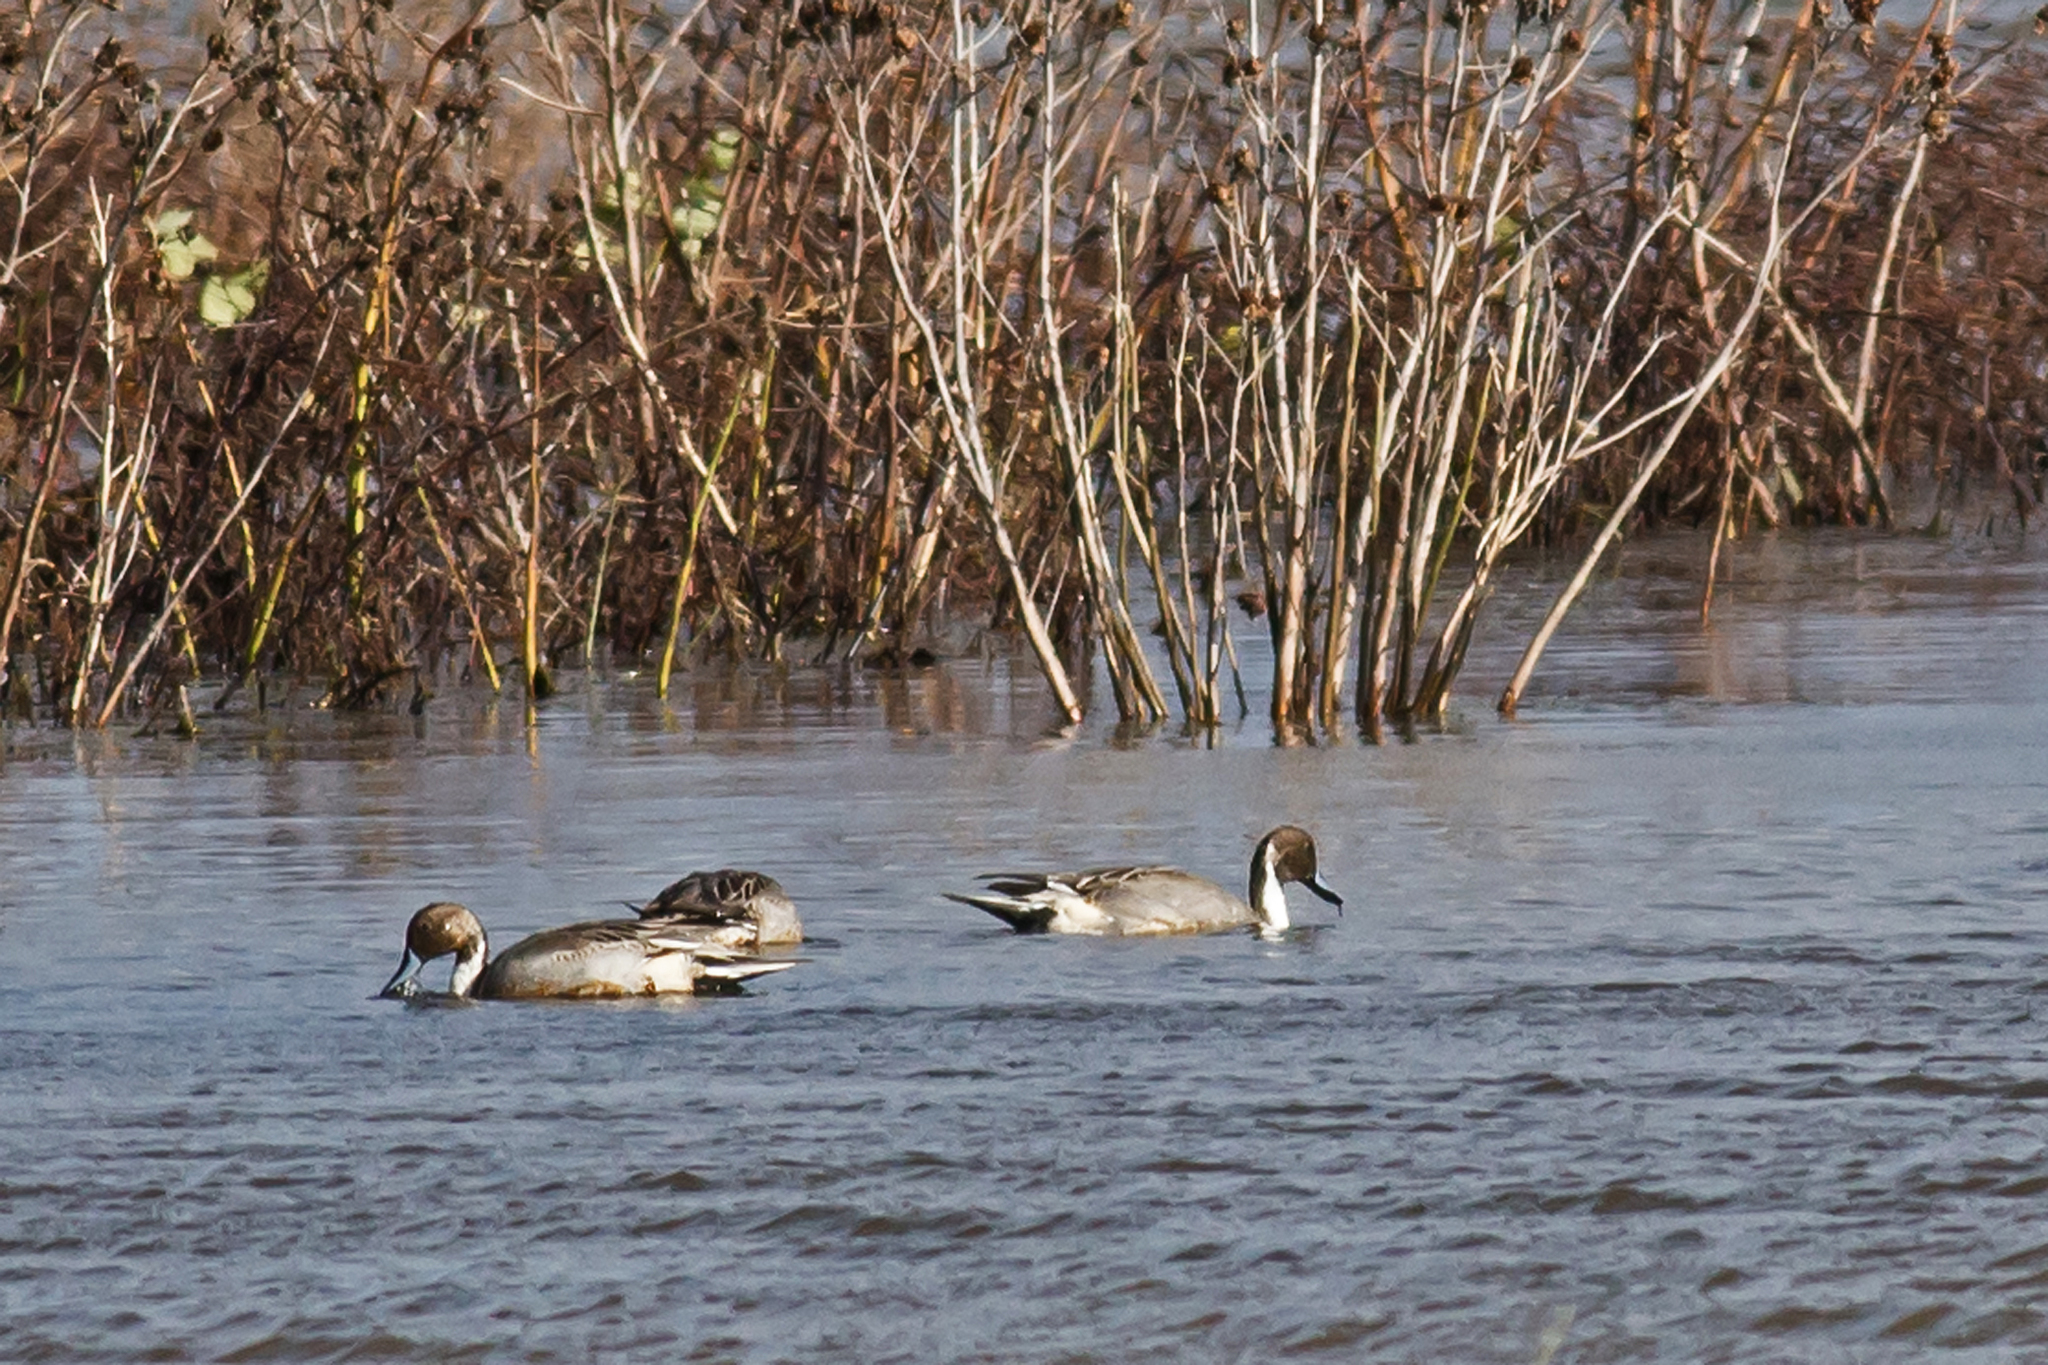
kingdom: Animalia
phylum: Chordata
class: Aves
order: Anseriformes
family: Anatidae
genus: Anas
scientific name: Anas acuta
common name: Northern pintail
